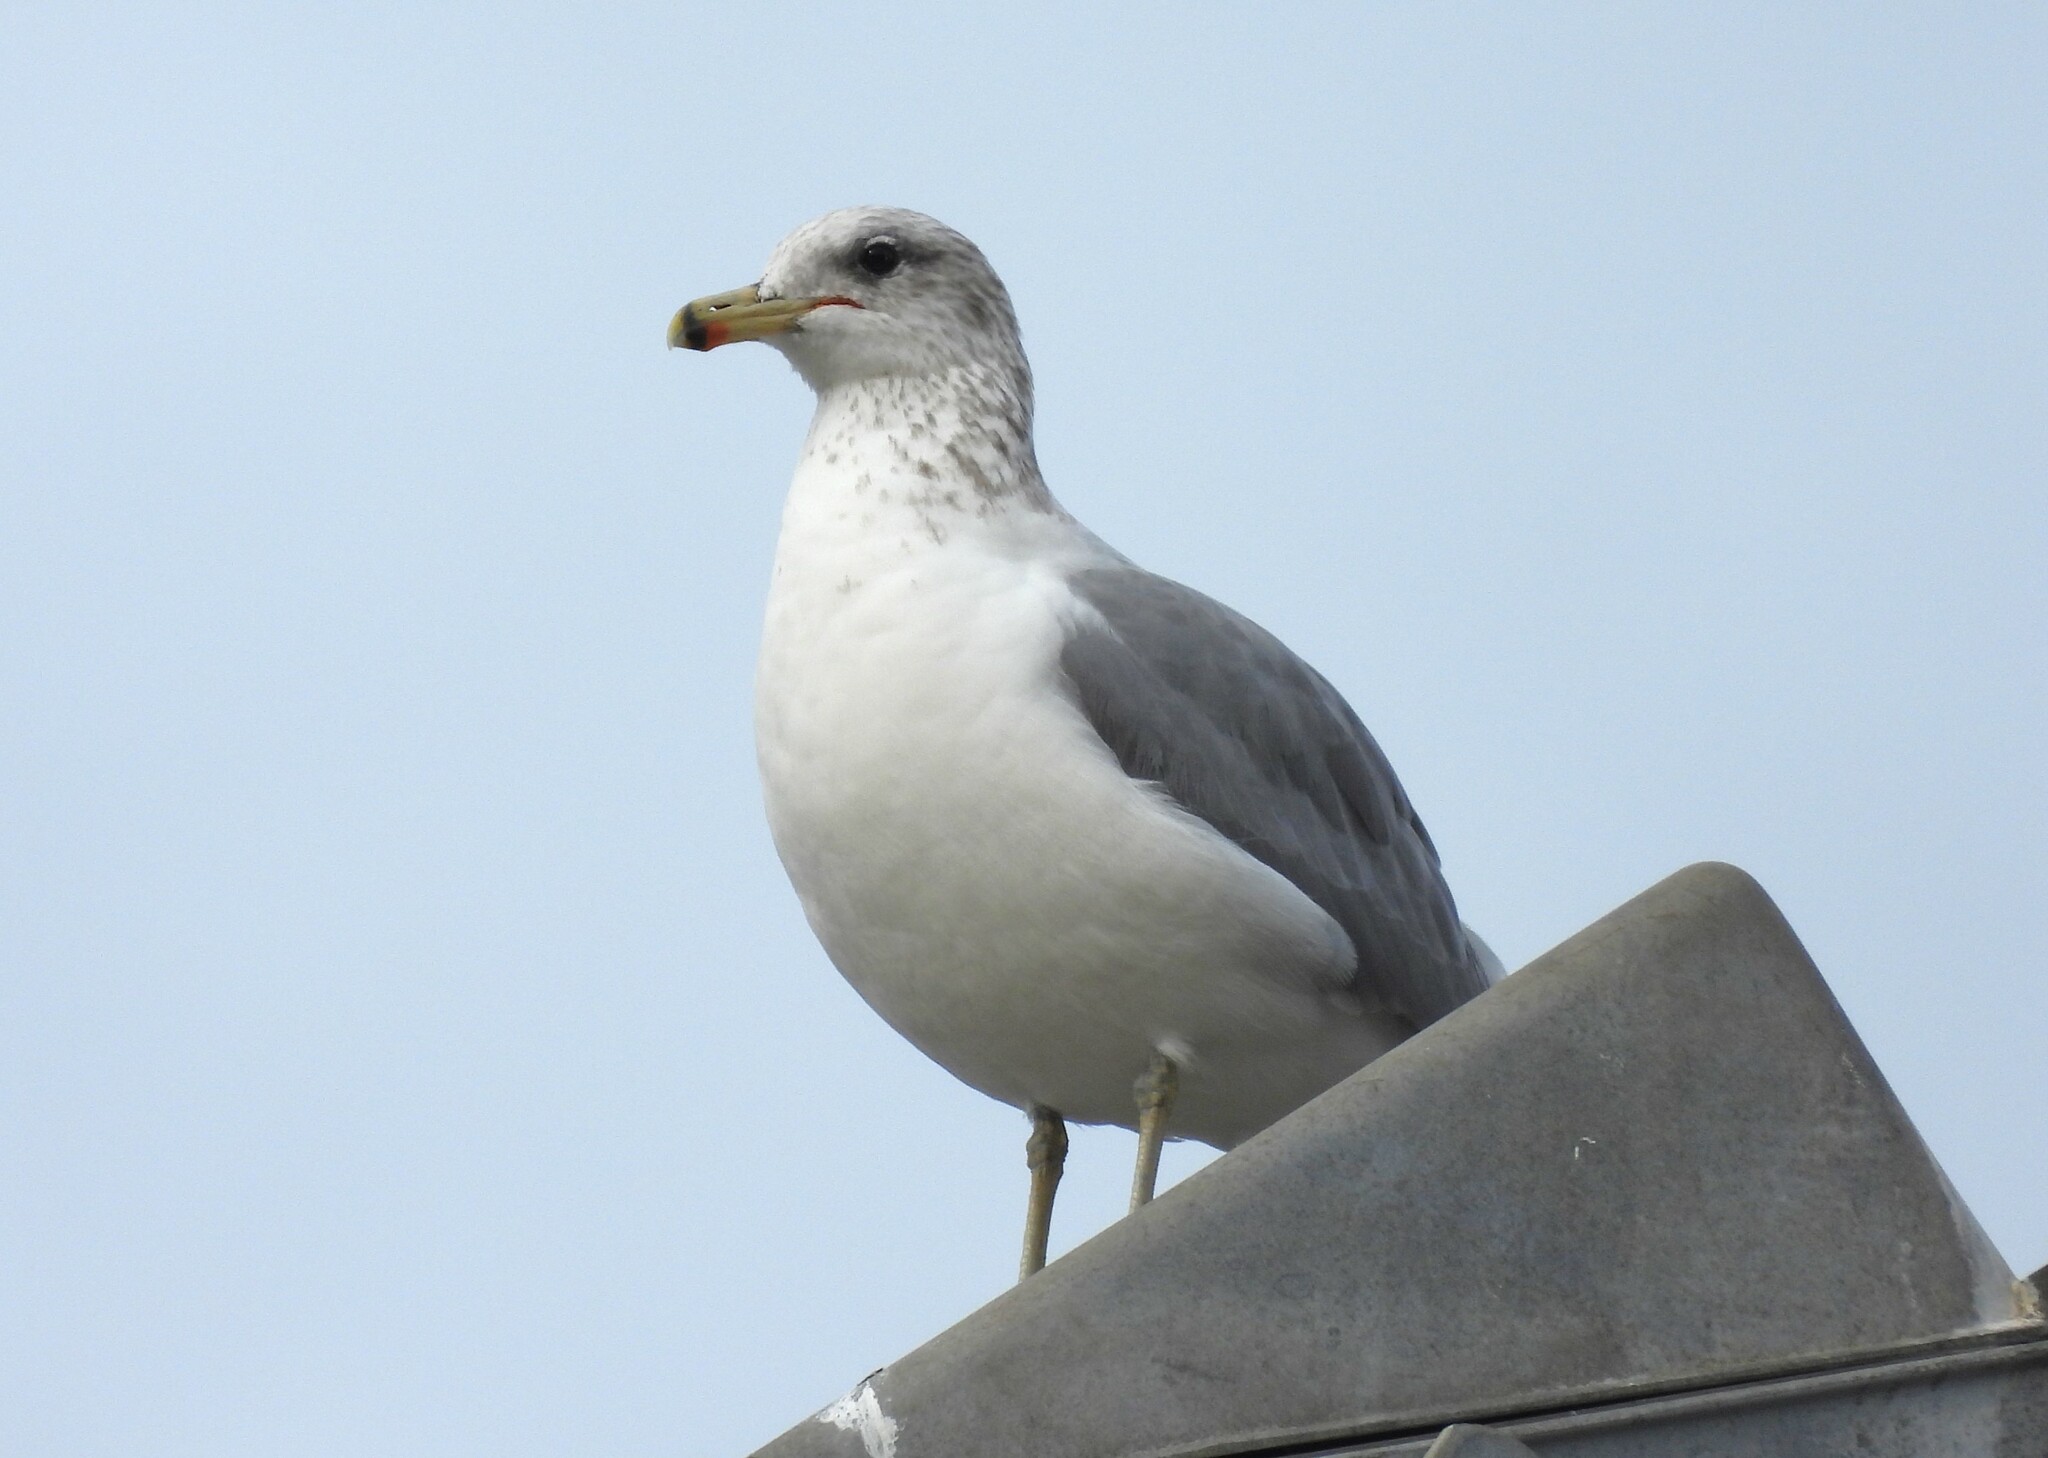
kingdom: Animalia
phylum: Chordata
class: Aves
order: Charadriiformes
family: Laridae
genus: Larus
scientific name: Larus californicus
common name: California gull
